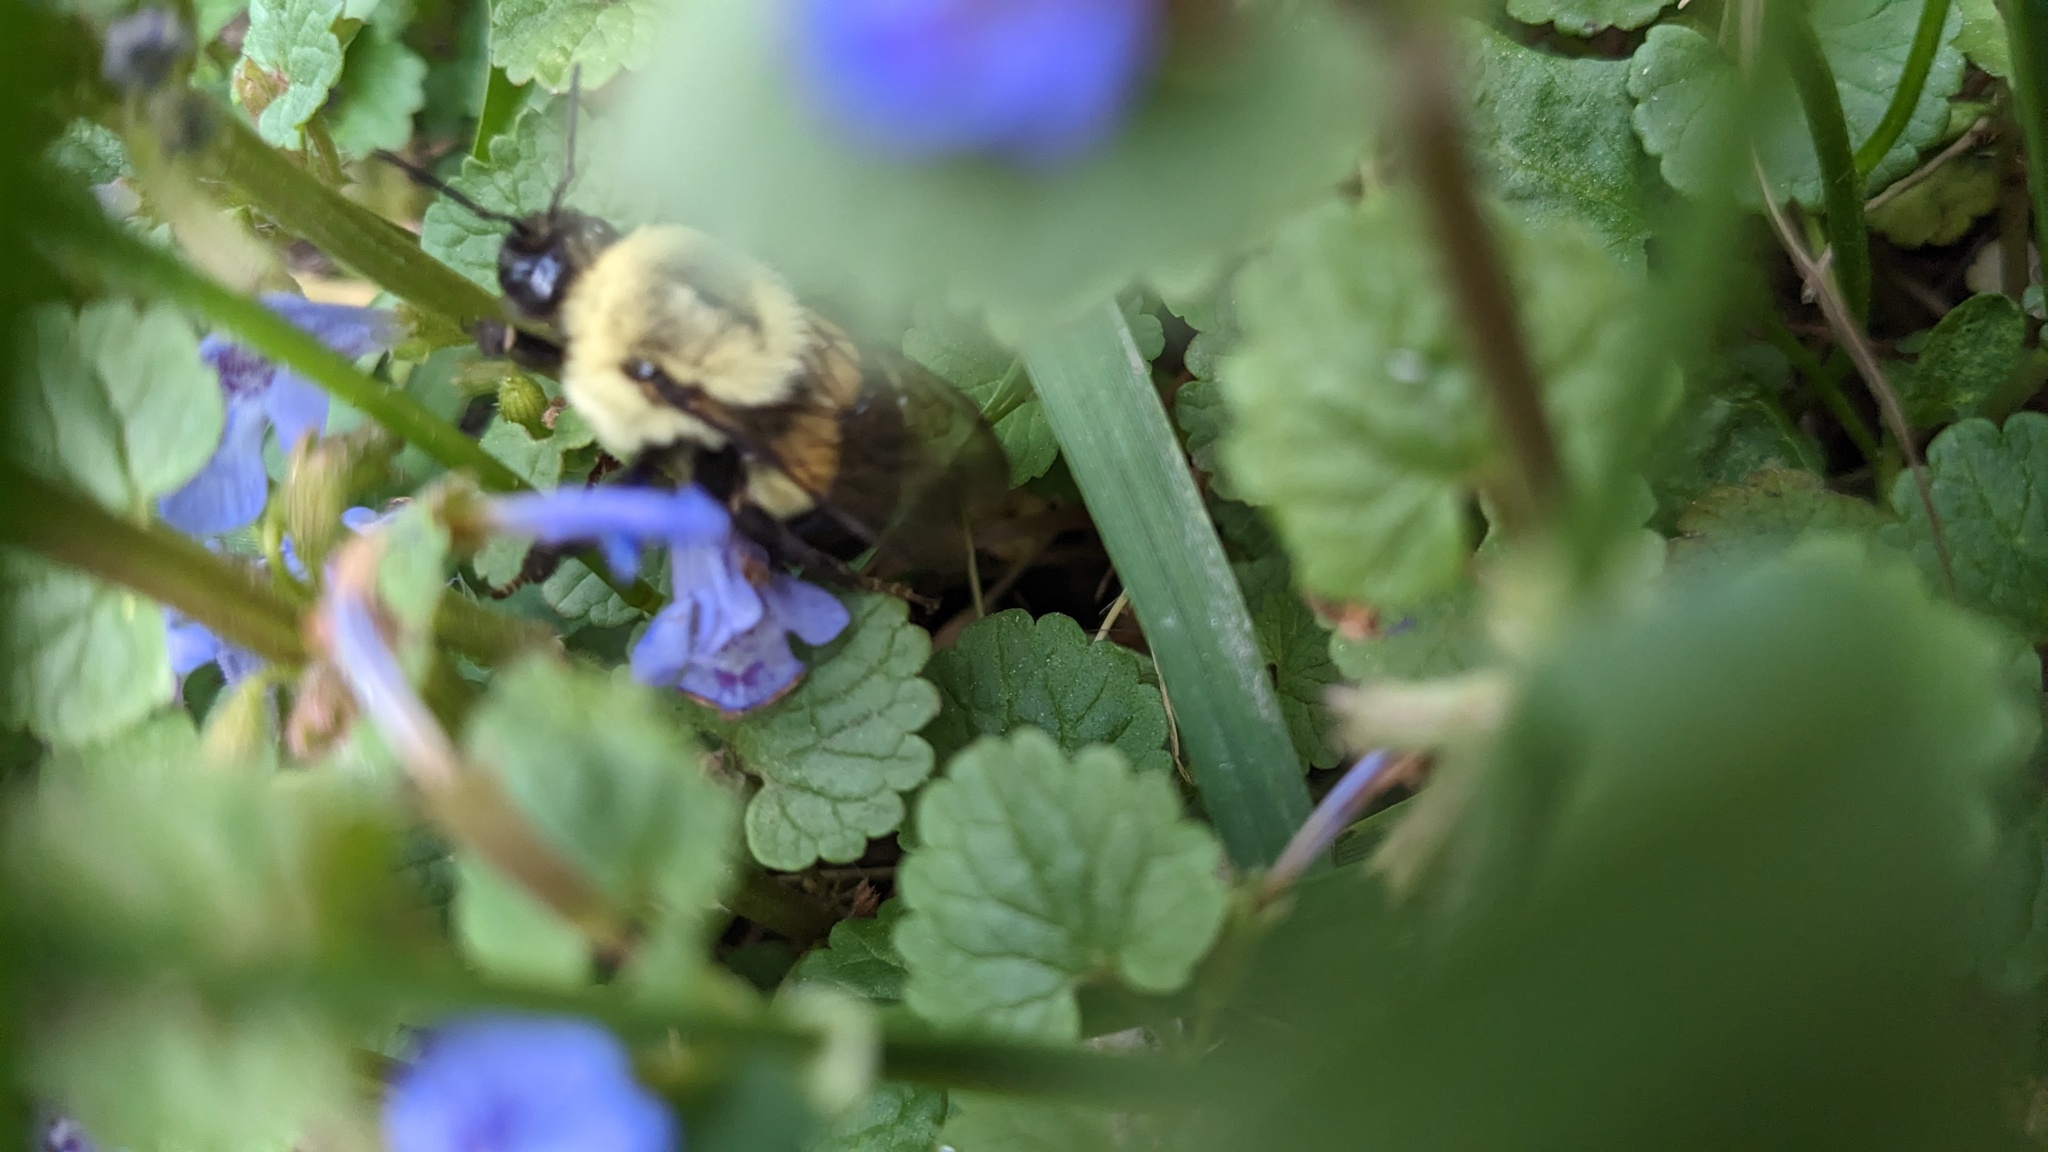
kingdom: Animalia
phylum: Arthropoda
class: Insecta
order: Hymenoptera
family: Apidae
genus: Bombus
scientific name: Bombus impatiens
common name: Common eastern bumble bee
